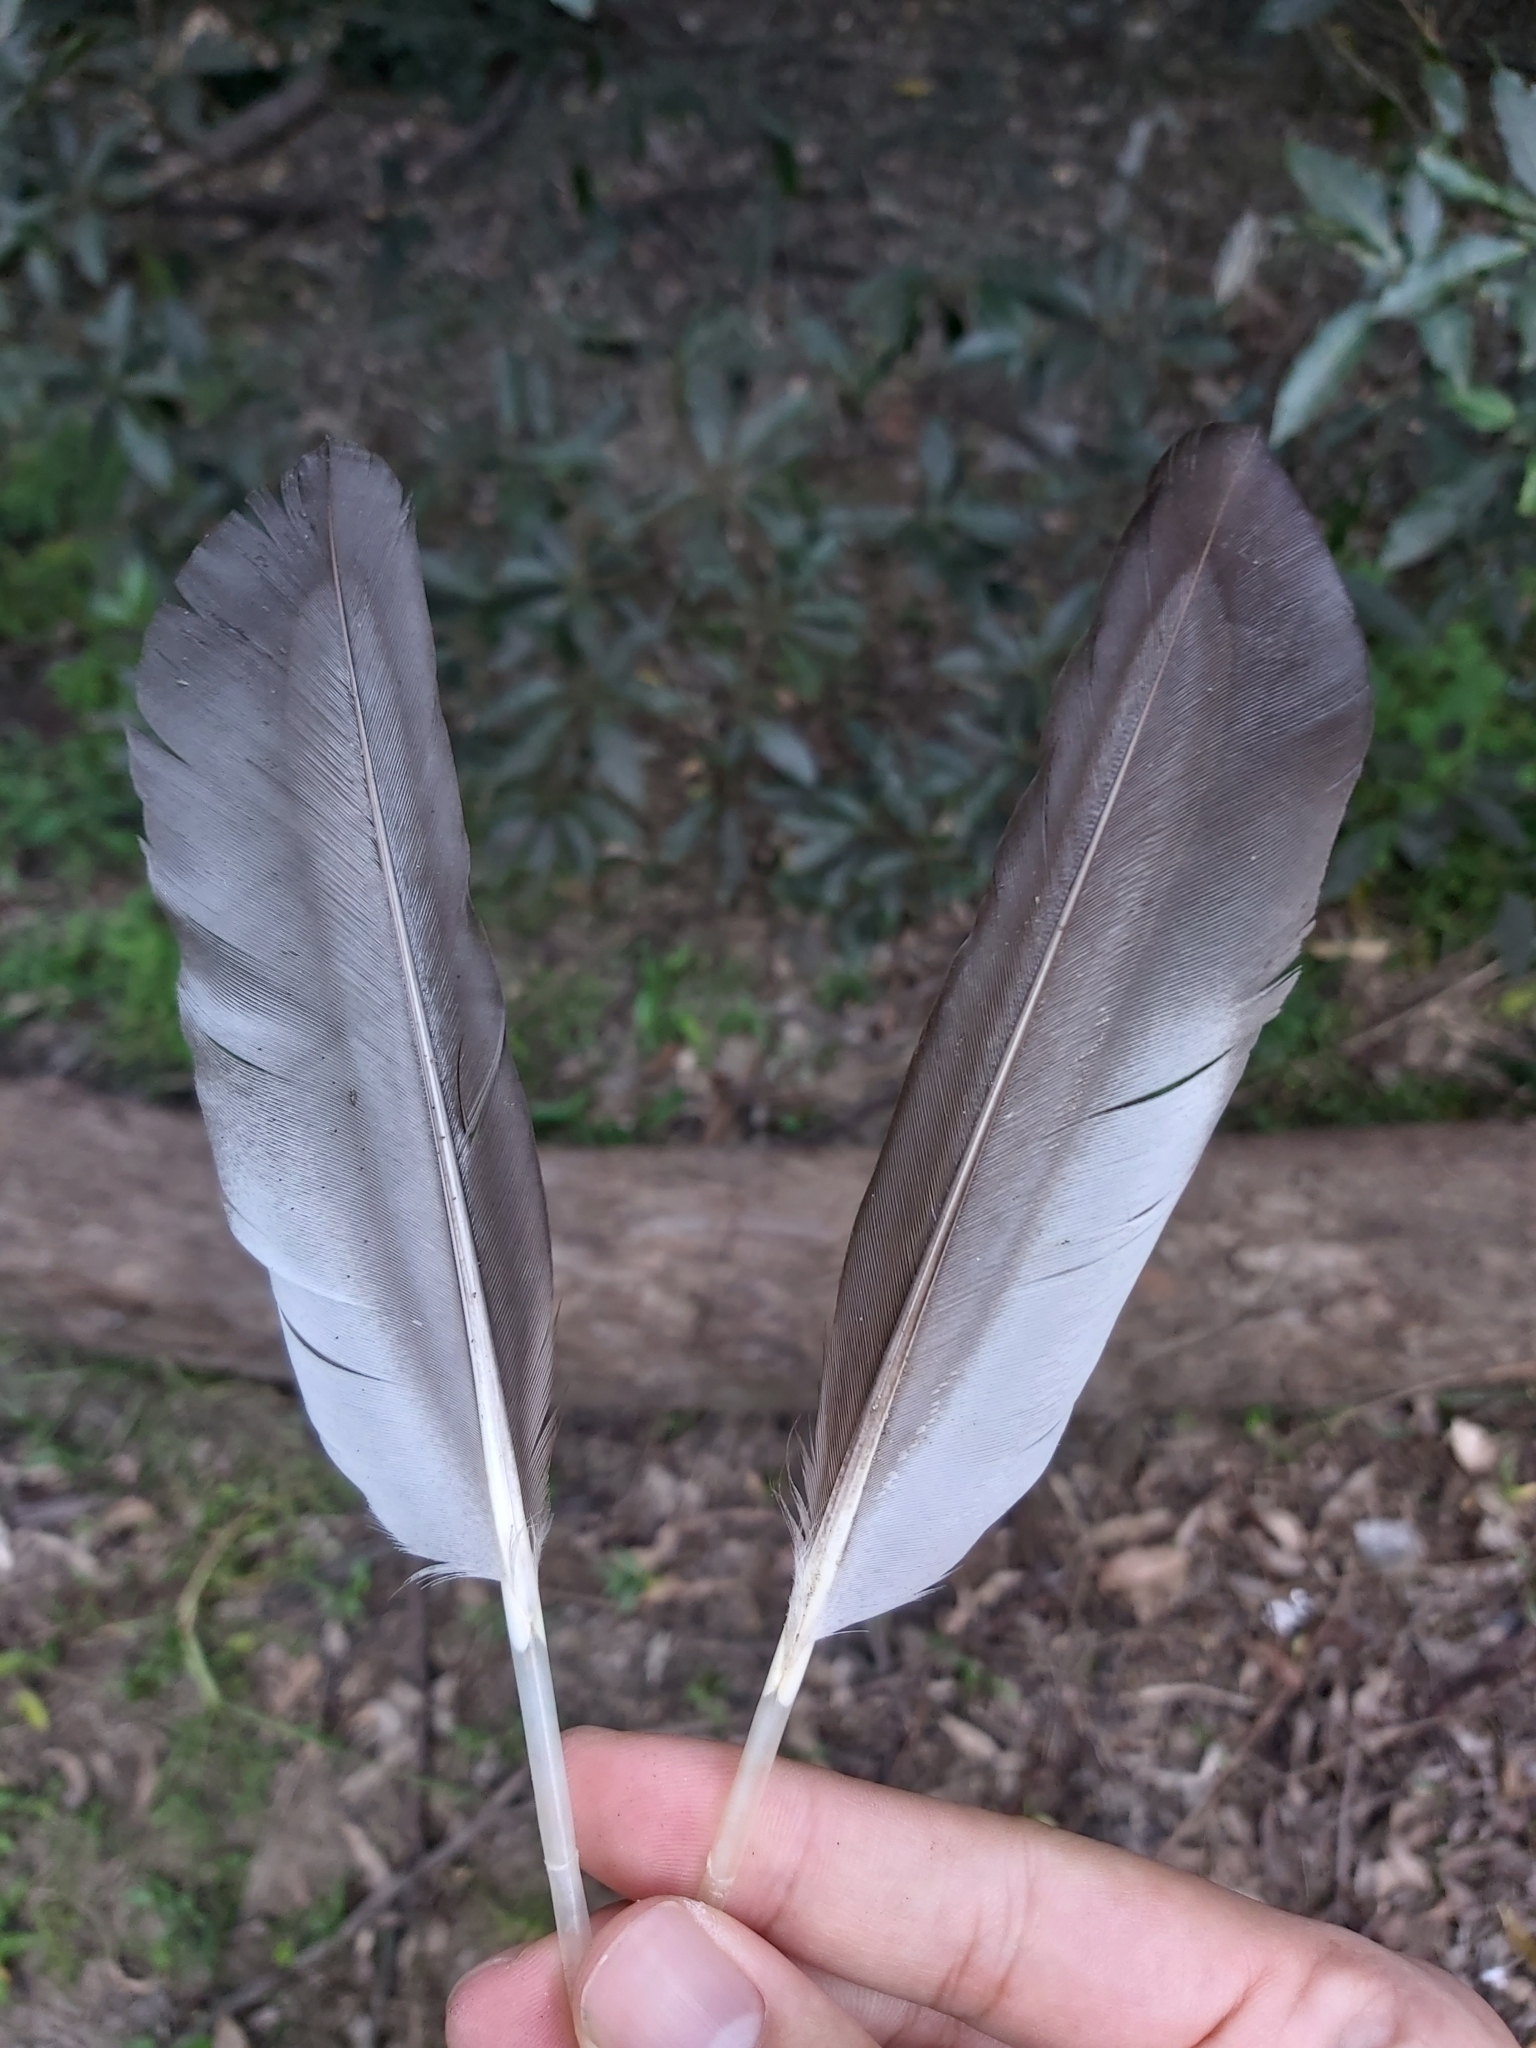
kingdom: Animalia
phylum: Chordata
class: Aves
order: Anseriformes
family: Anatidae
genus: Chenonetta
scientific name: Chenonetta jubata
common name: Maned duck
